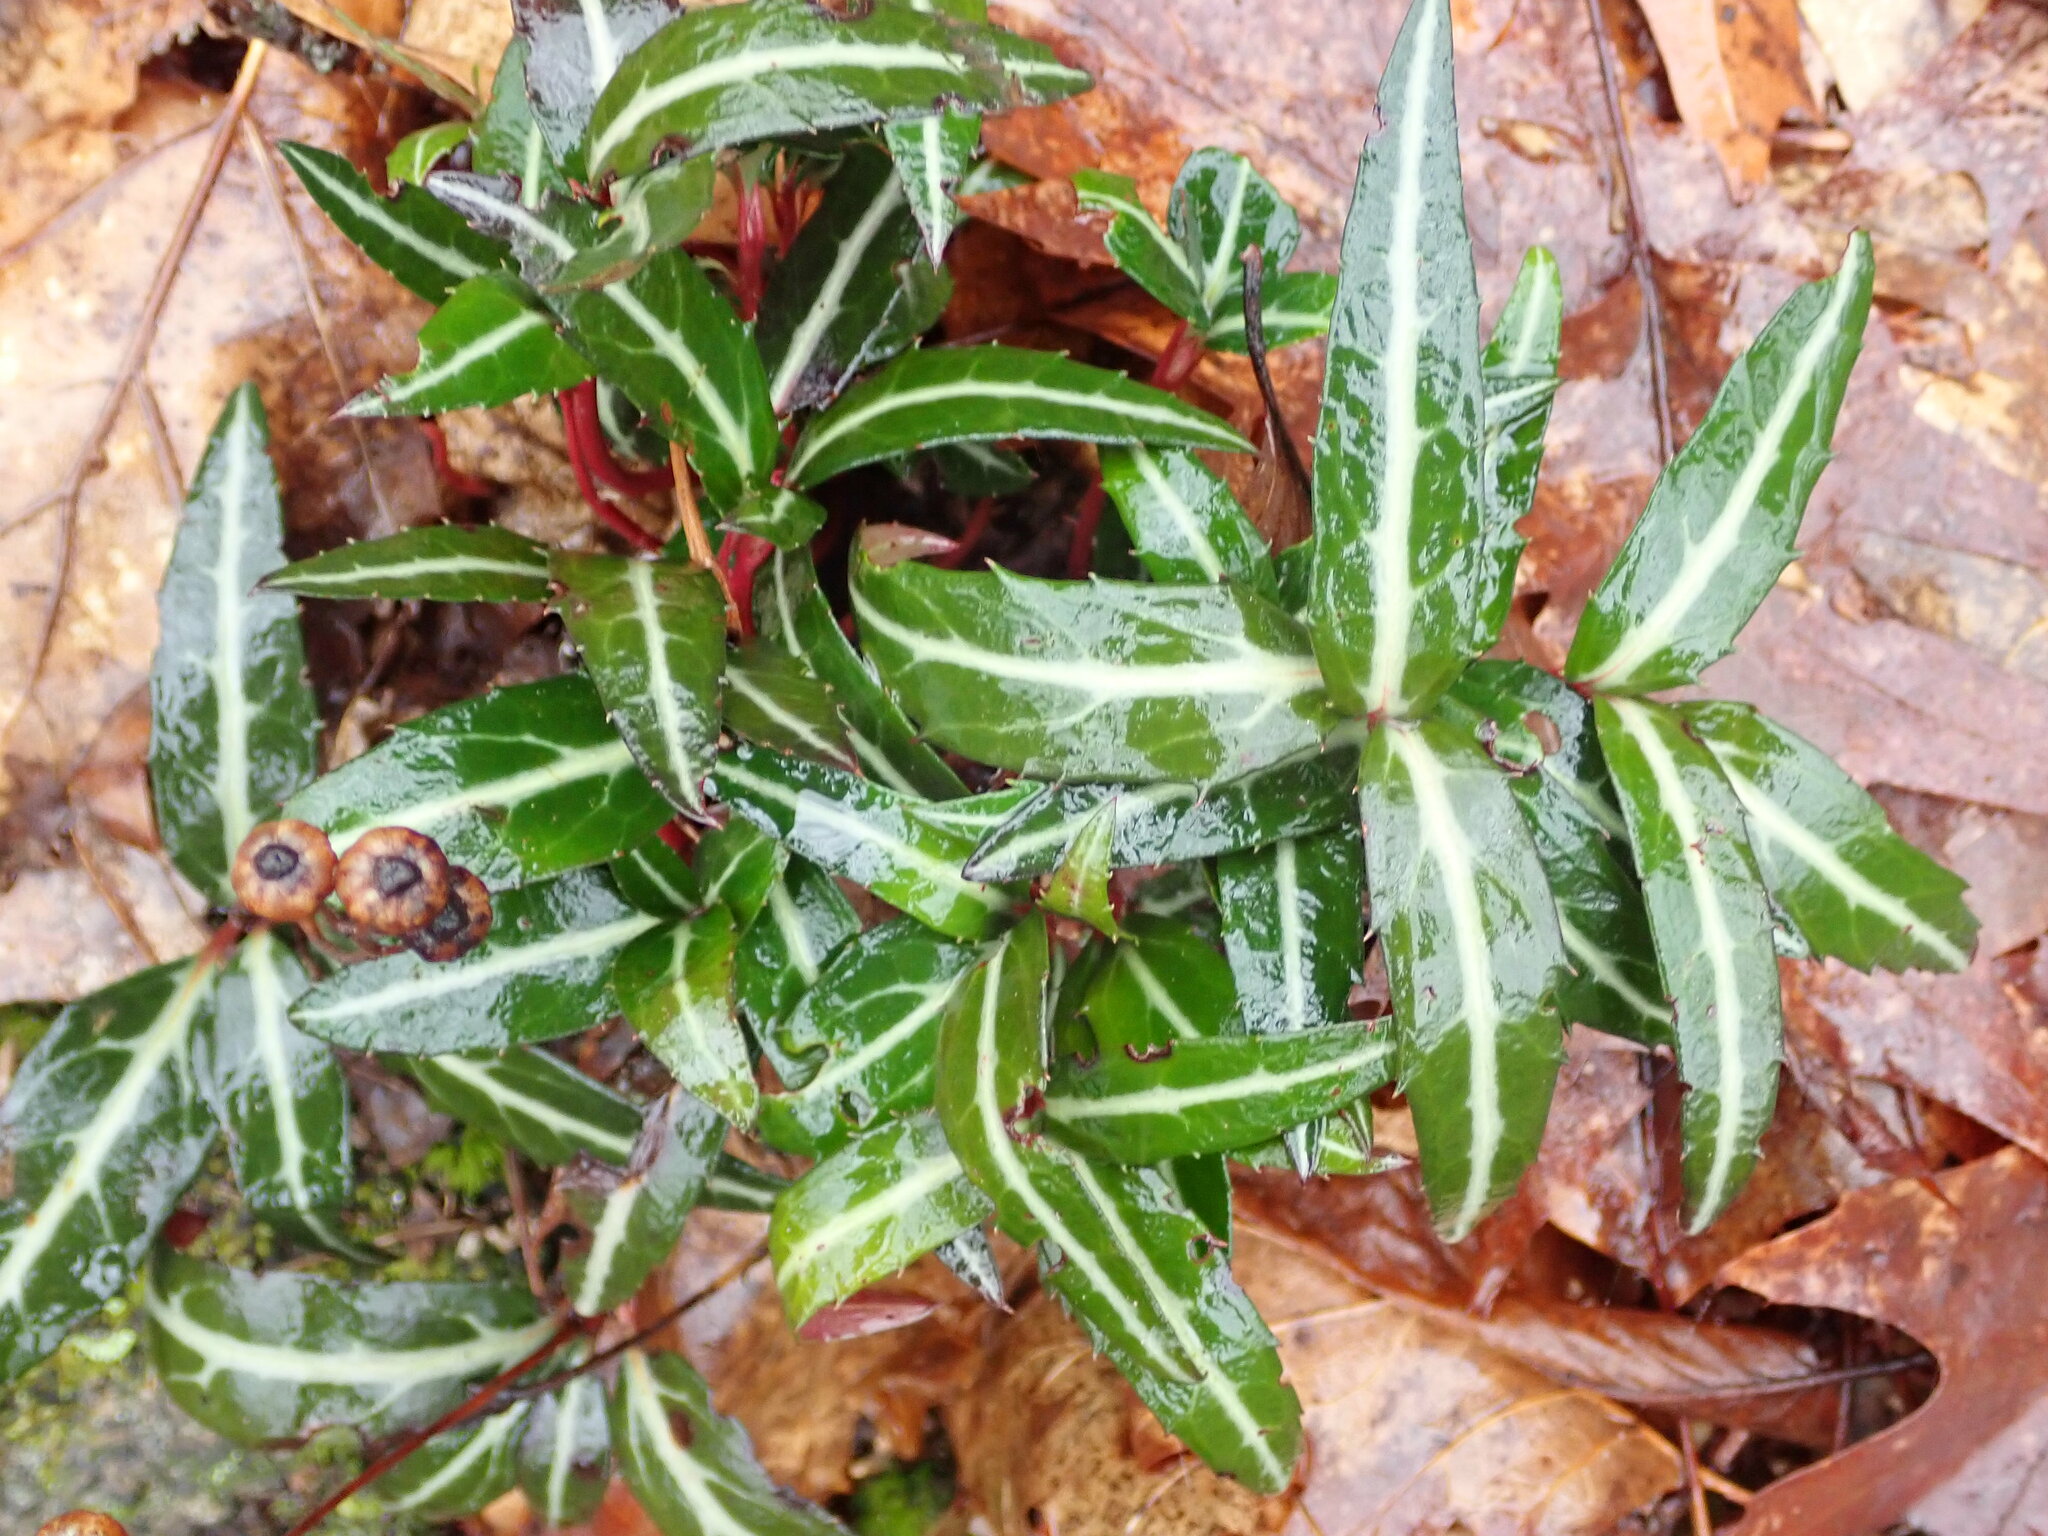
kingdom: Plantae
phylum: Tracheophyta
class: Magnoliopsida
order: Ericales
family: Ericaceae
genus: Chimaphila
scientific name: Chimaphila maculata
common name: Spotted pipsissewa
